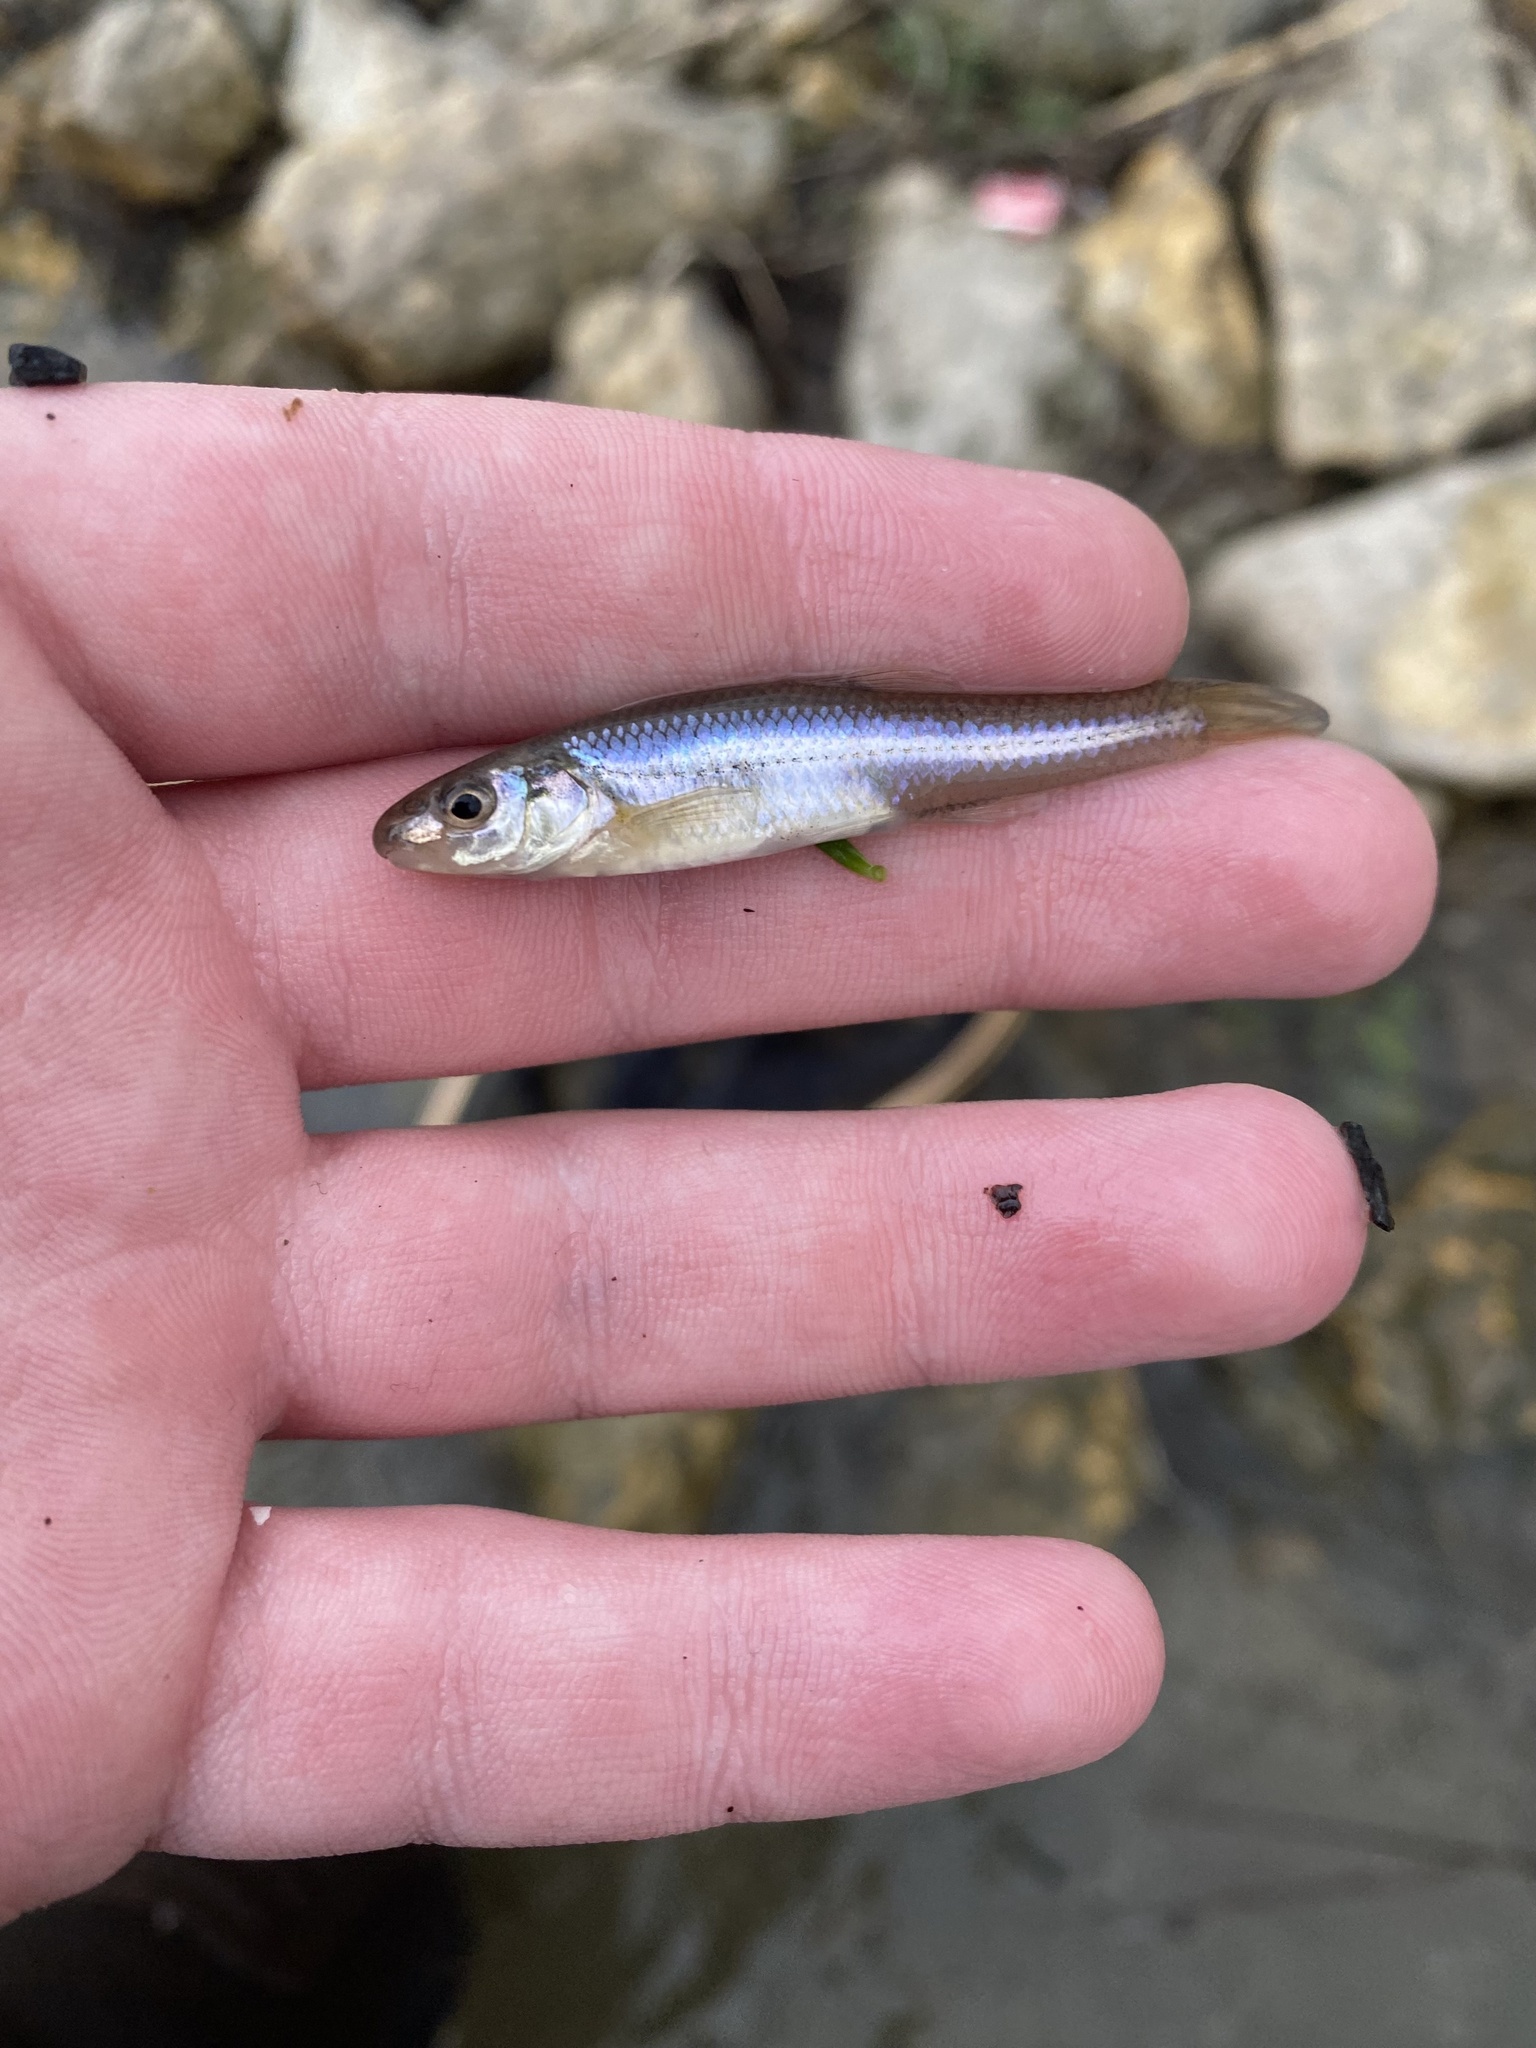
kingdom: Animalia
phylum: Chordata
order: Cypriniformes
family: Cyprinidae
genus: Ericymba
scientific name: Ericymba
